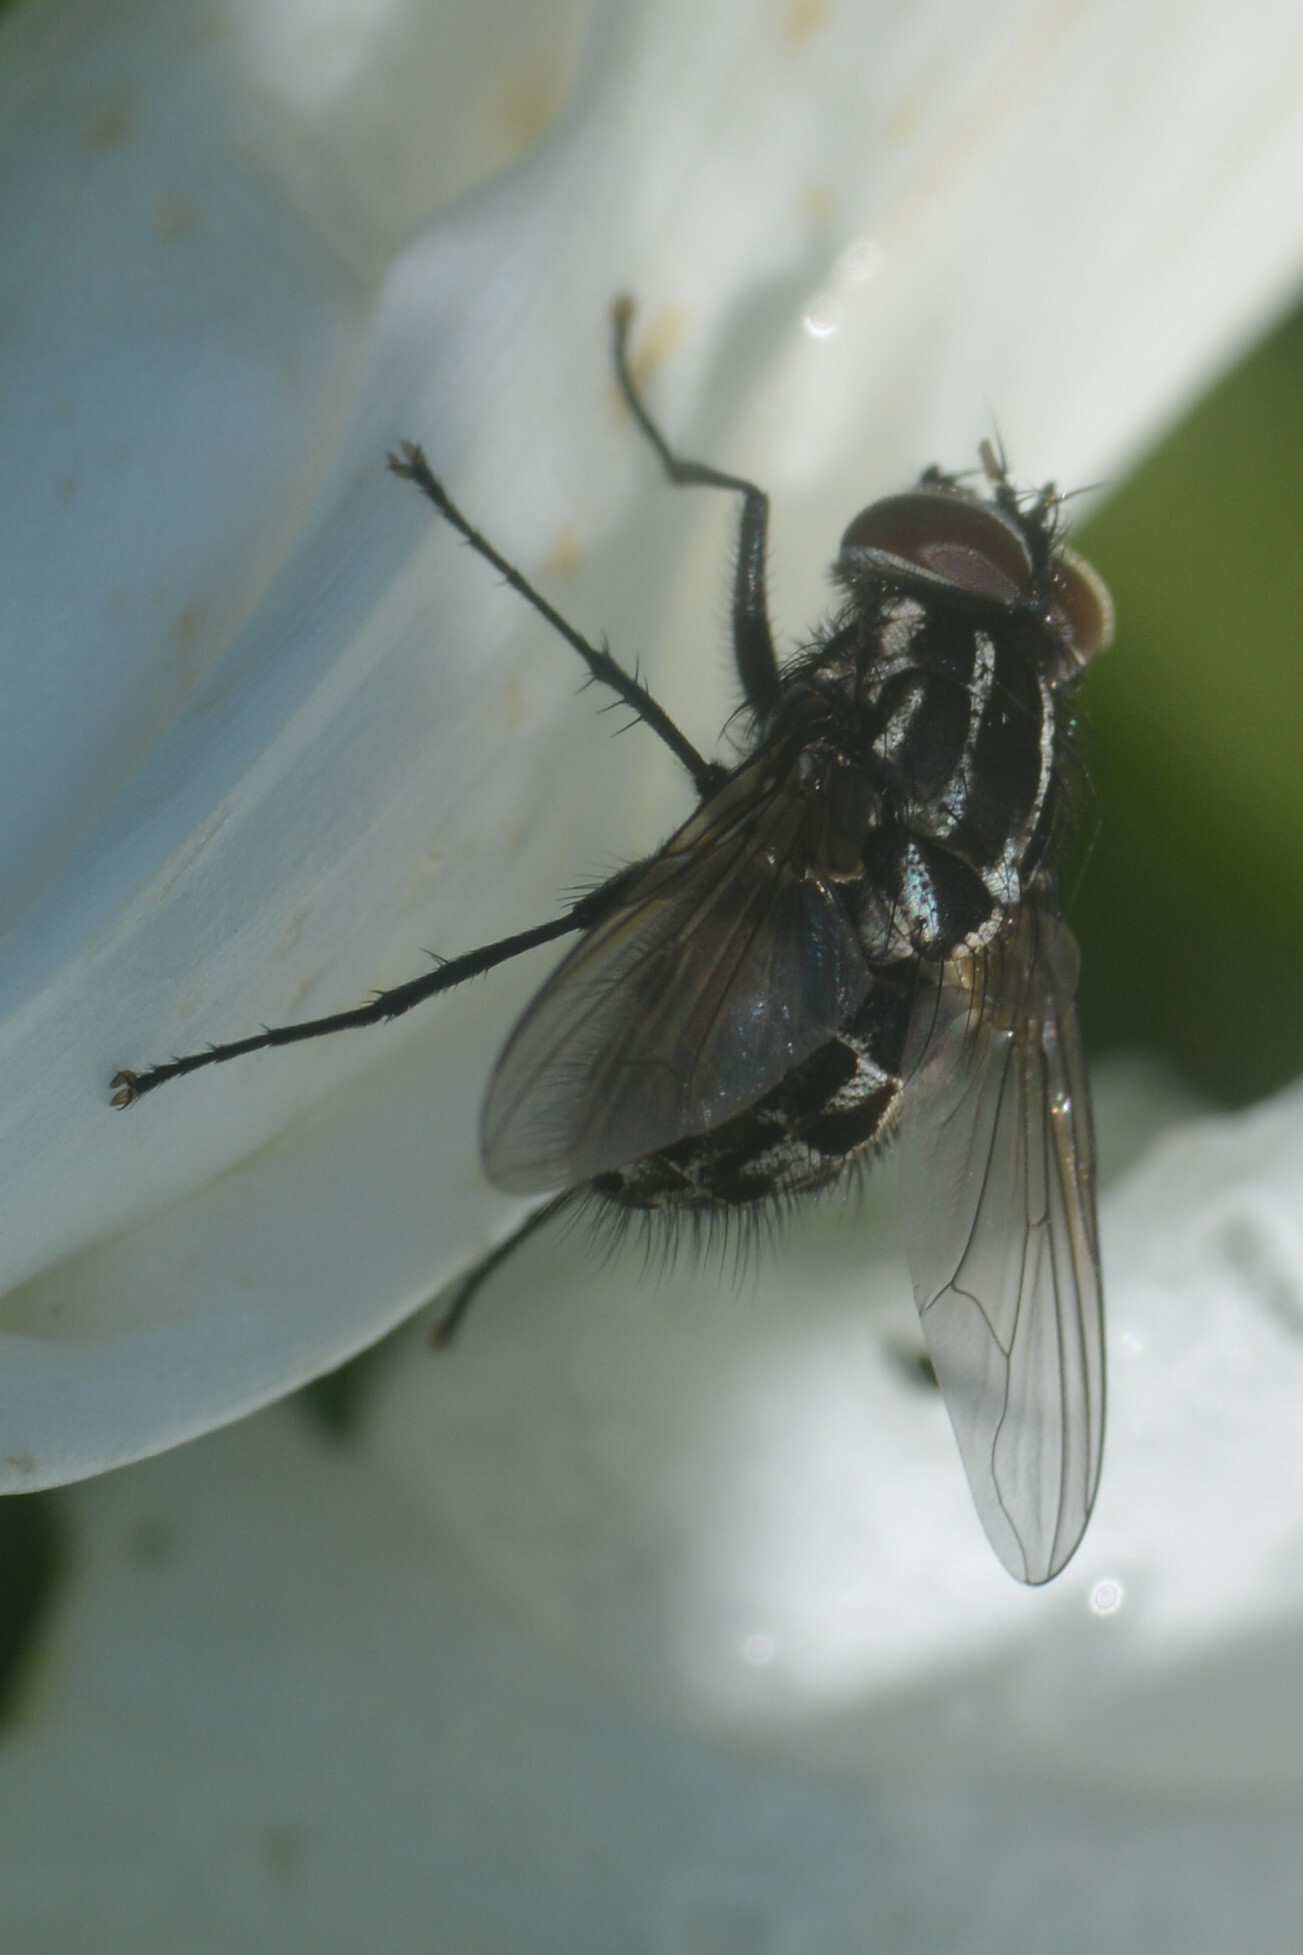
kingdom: Animalia
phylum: Arthropoda
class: Insecta
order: Diptera
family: Muscidae
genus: Graphomya
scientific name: Graphomya minor
